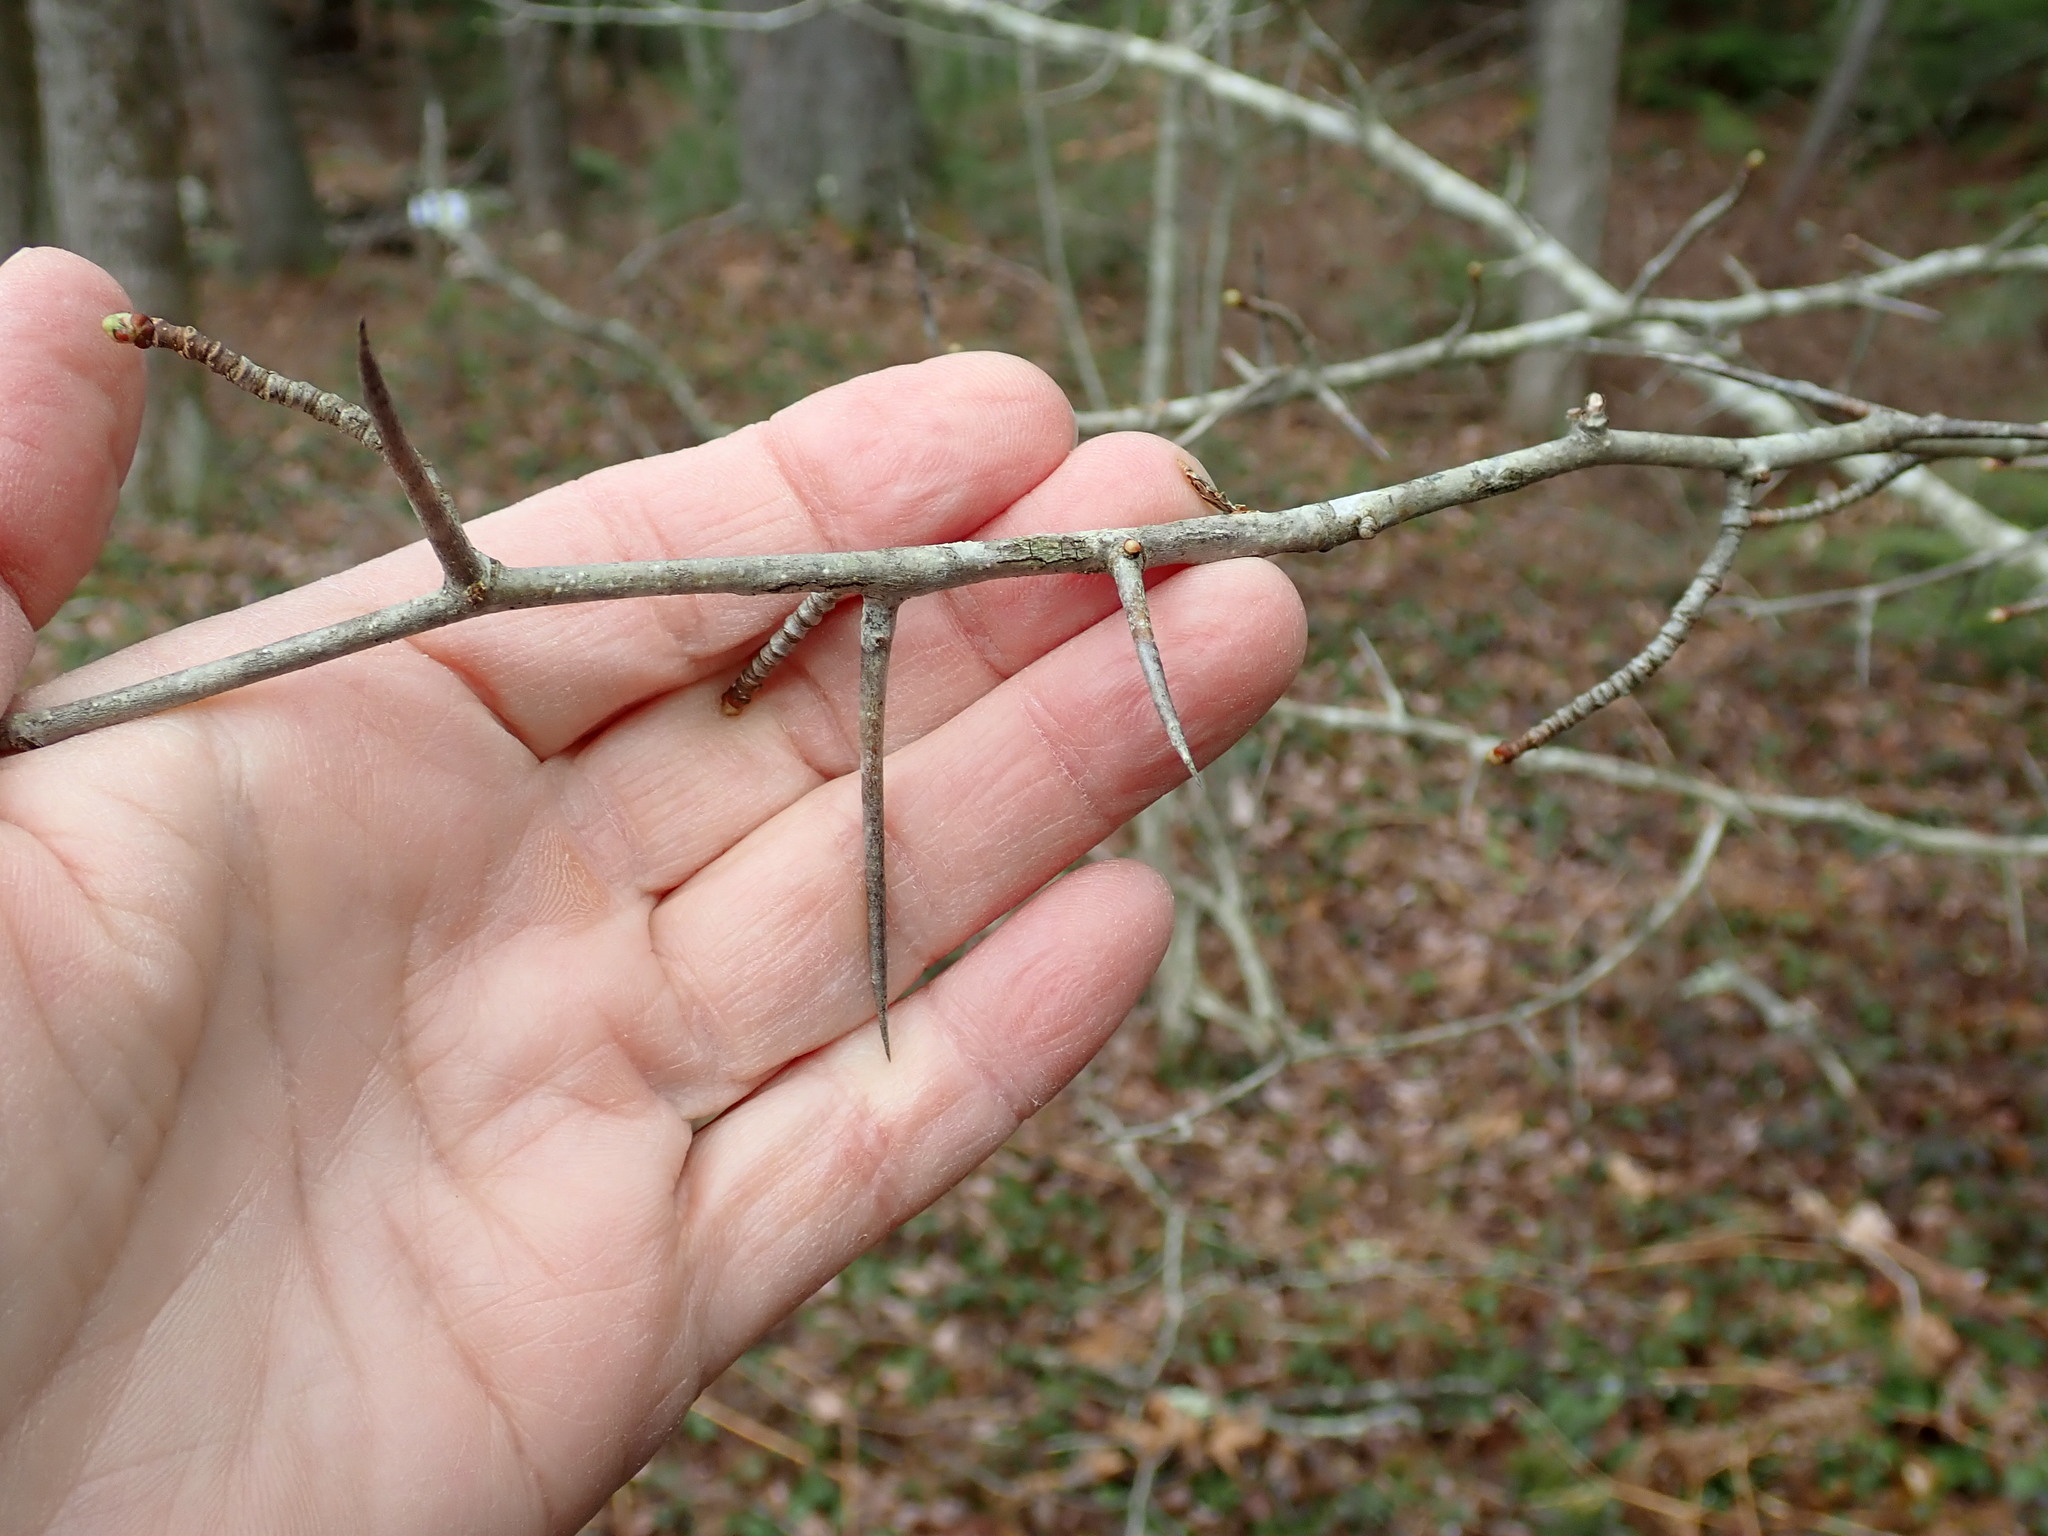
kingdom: Plantae
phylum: Tracheophyta
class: Magnoliopsida
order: Rosales
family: Rosaceae
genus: Crataegus
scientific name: Crataegus
